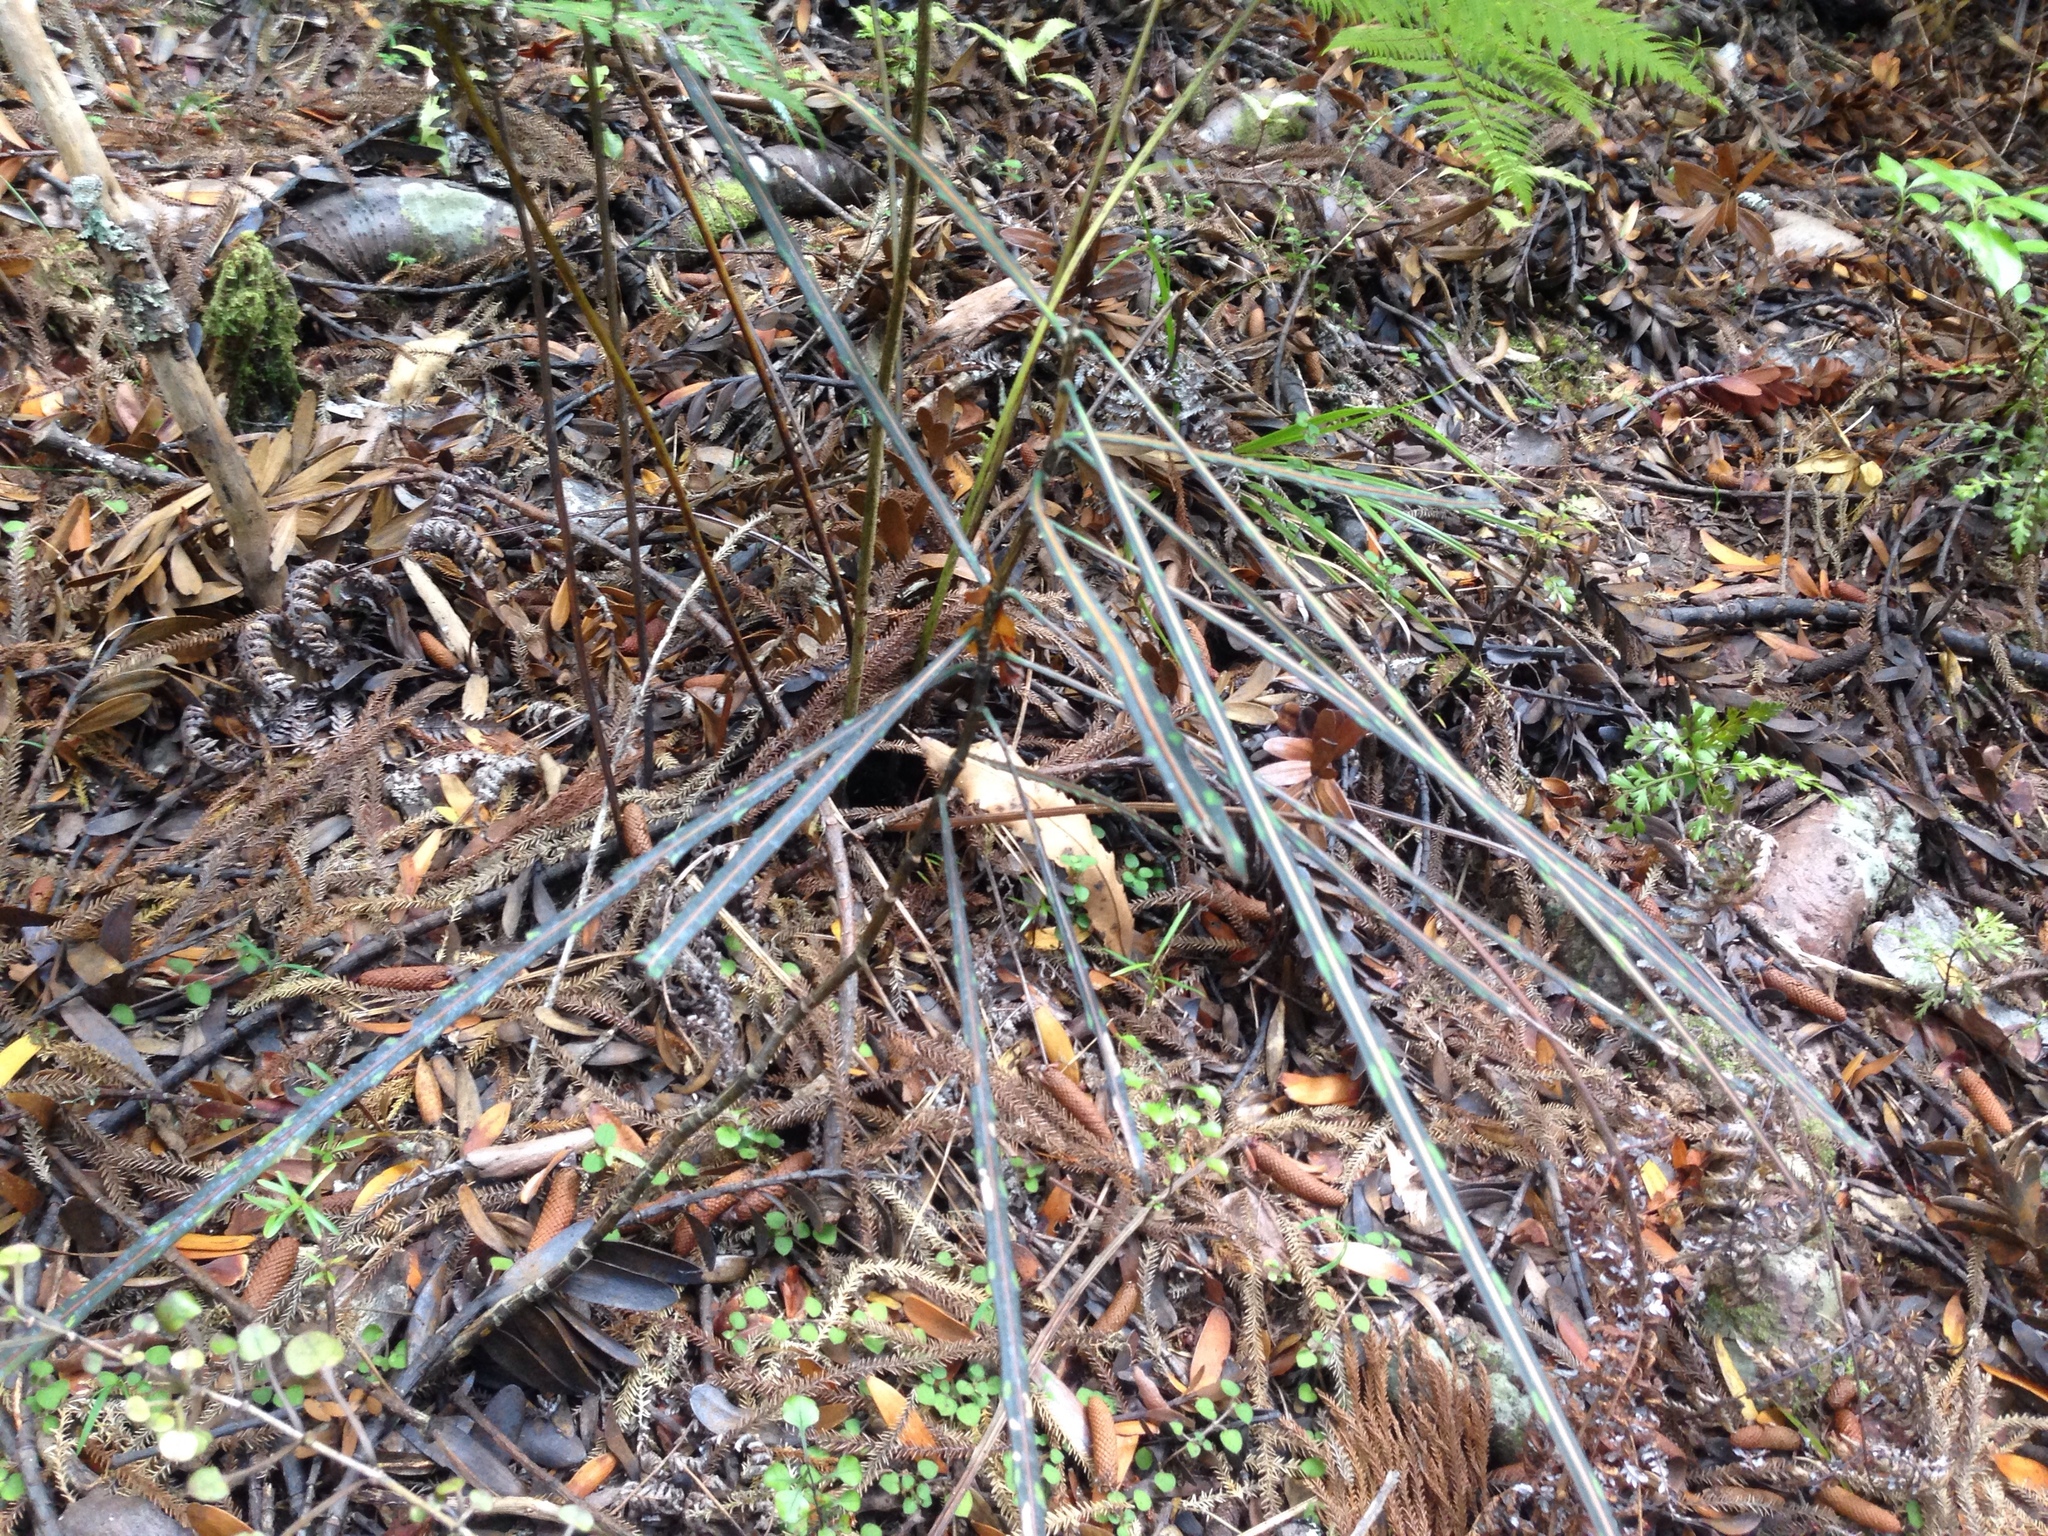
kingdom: Plantae
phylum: Tracheophyta
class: Magnoliopsida
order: Apiales
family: Araliaceae
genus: Pseudopanax
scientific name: Pseudopanax crassifolius
